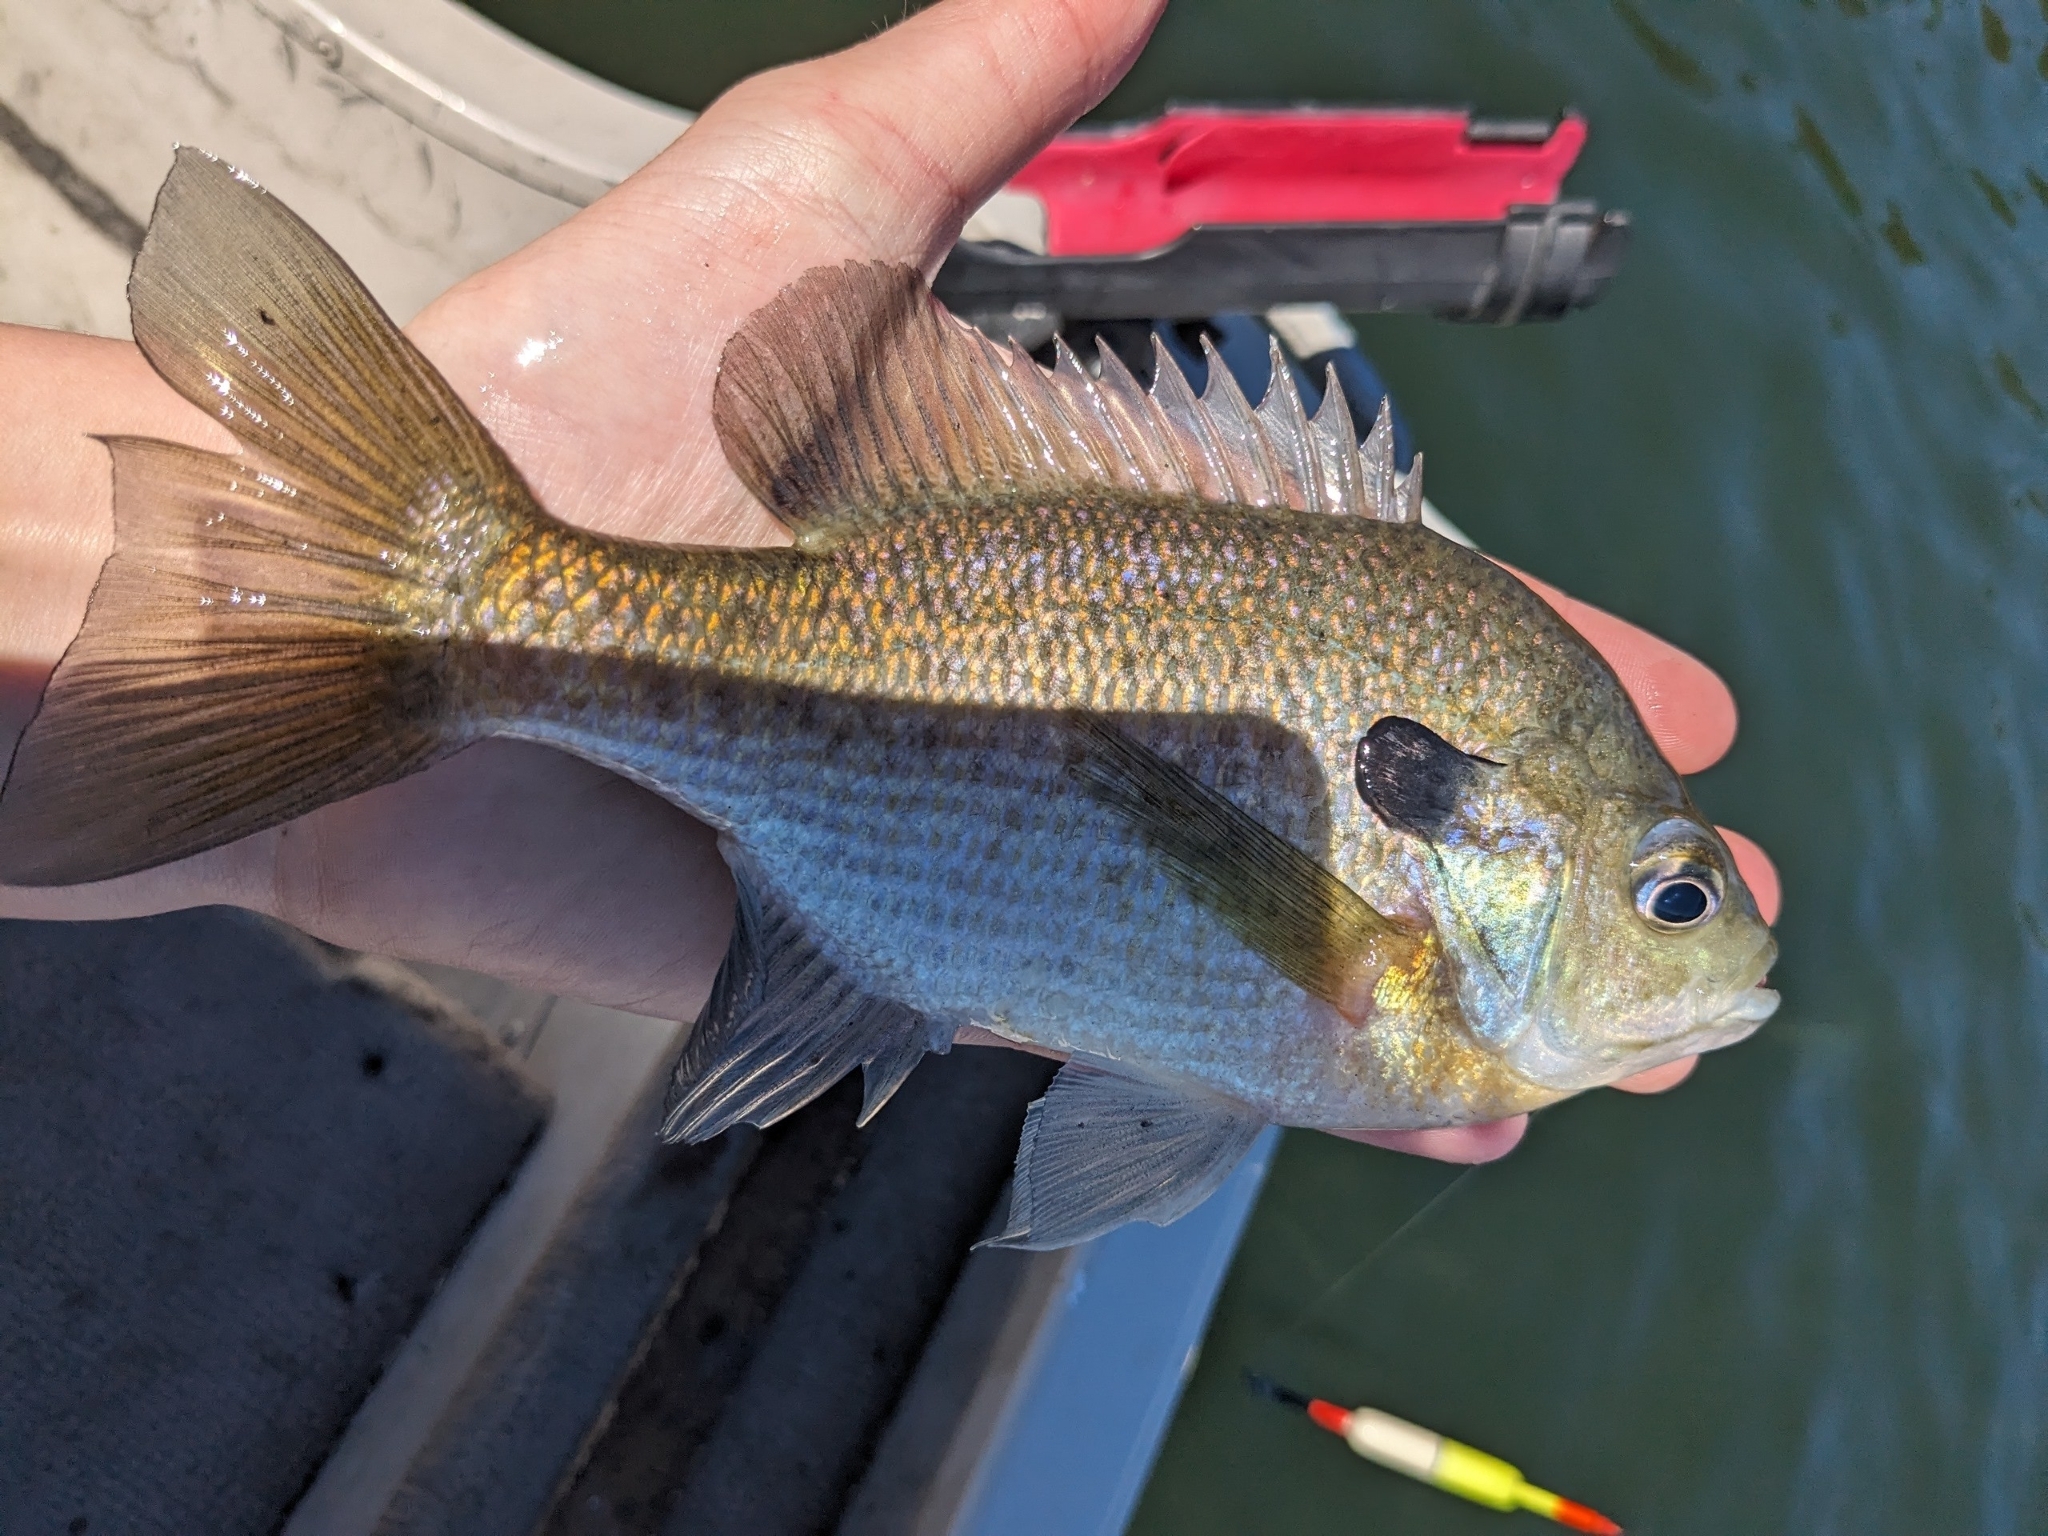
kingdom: Animalia
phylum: Chordata
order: Perciformes
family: Centrarchidae
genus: Lepomis
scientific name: Lepomis macrochirus
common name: Bluegill
